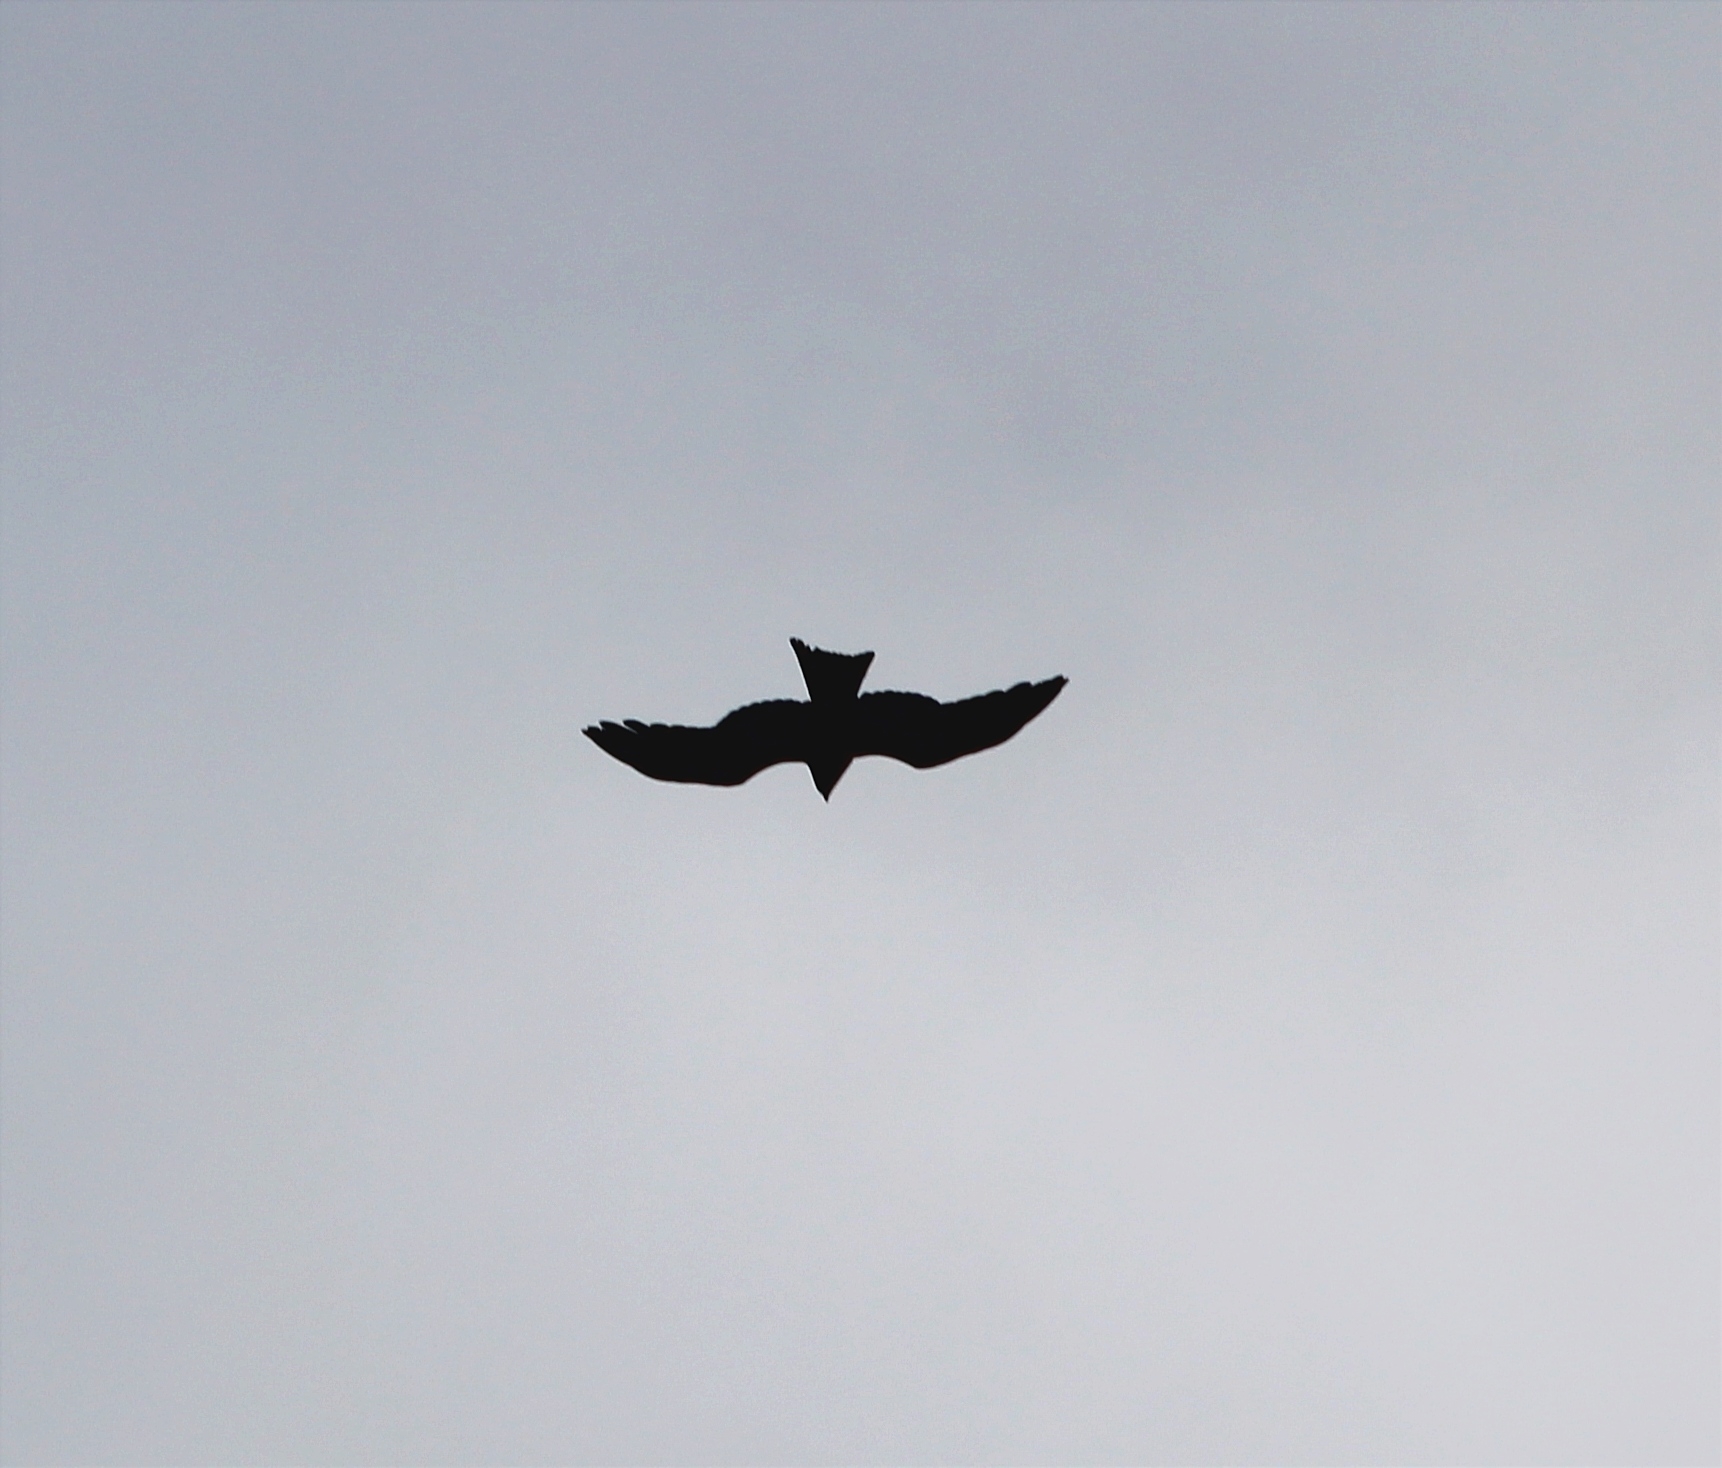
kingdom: Animalia
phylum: Chordata
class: Aves
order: Accipitriformes
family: Accipitridae
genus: Milvus
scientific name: Milvus migrans
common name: Black kite
